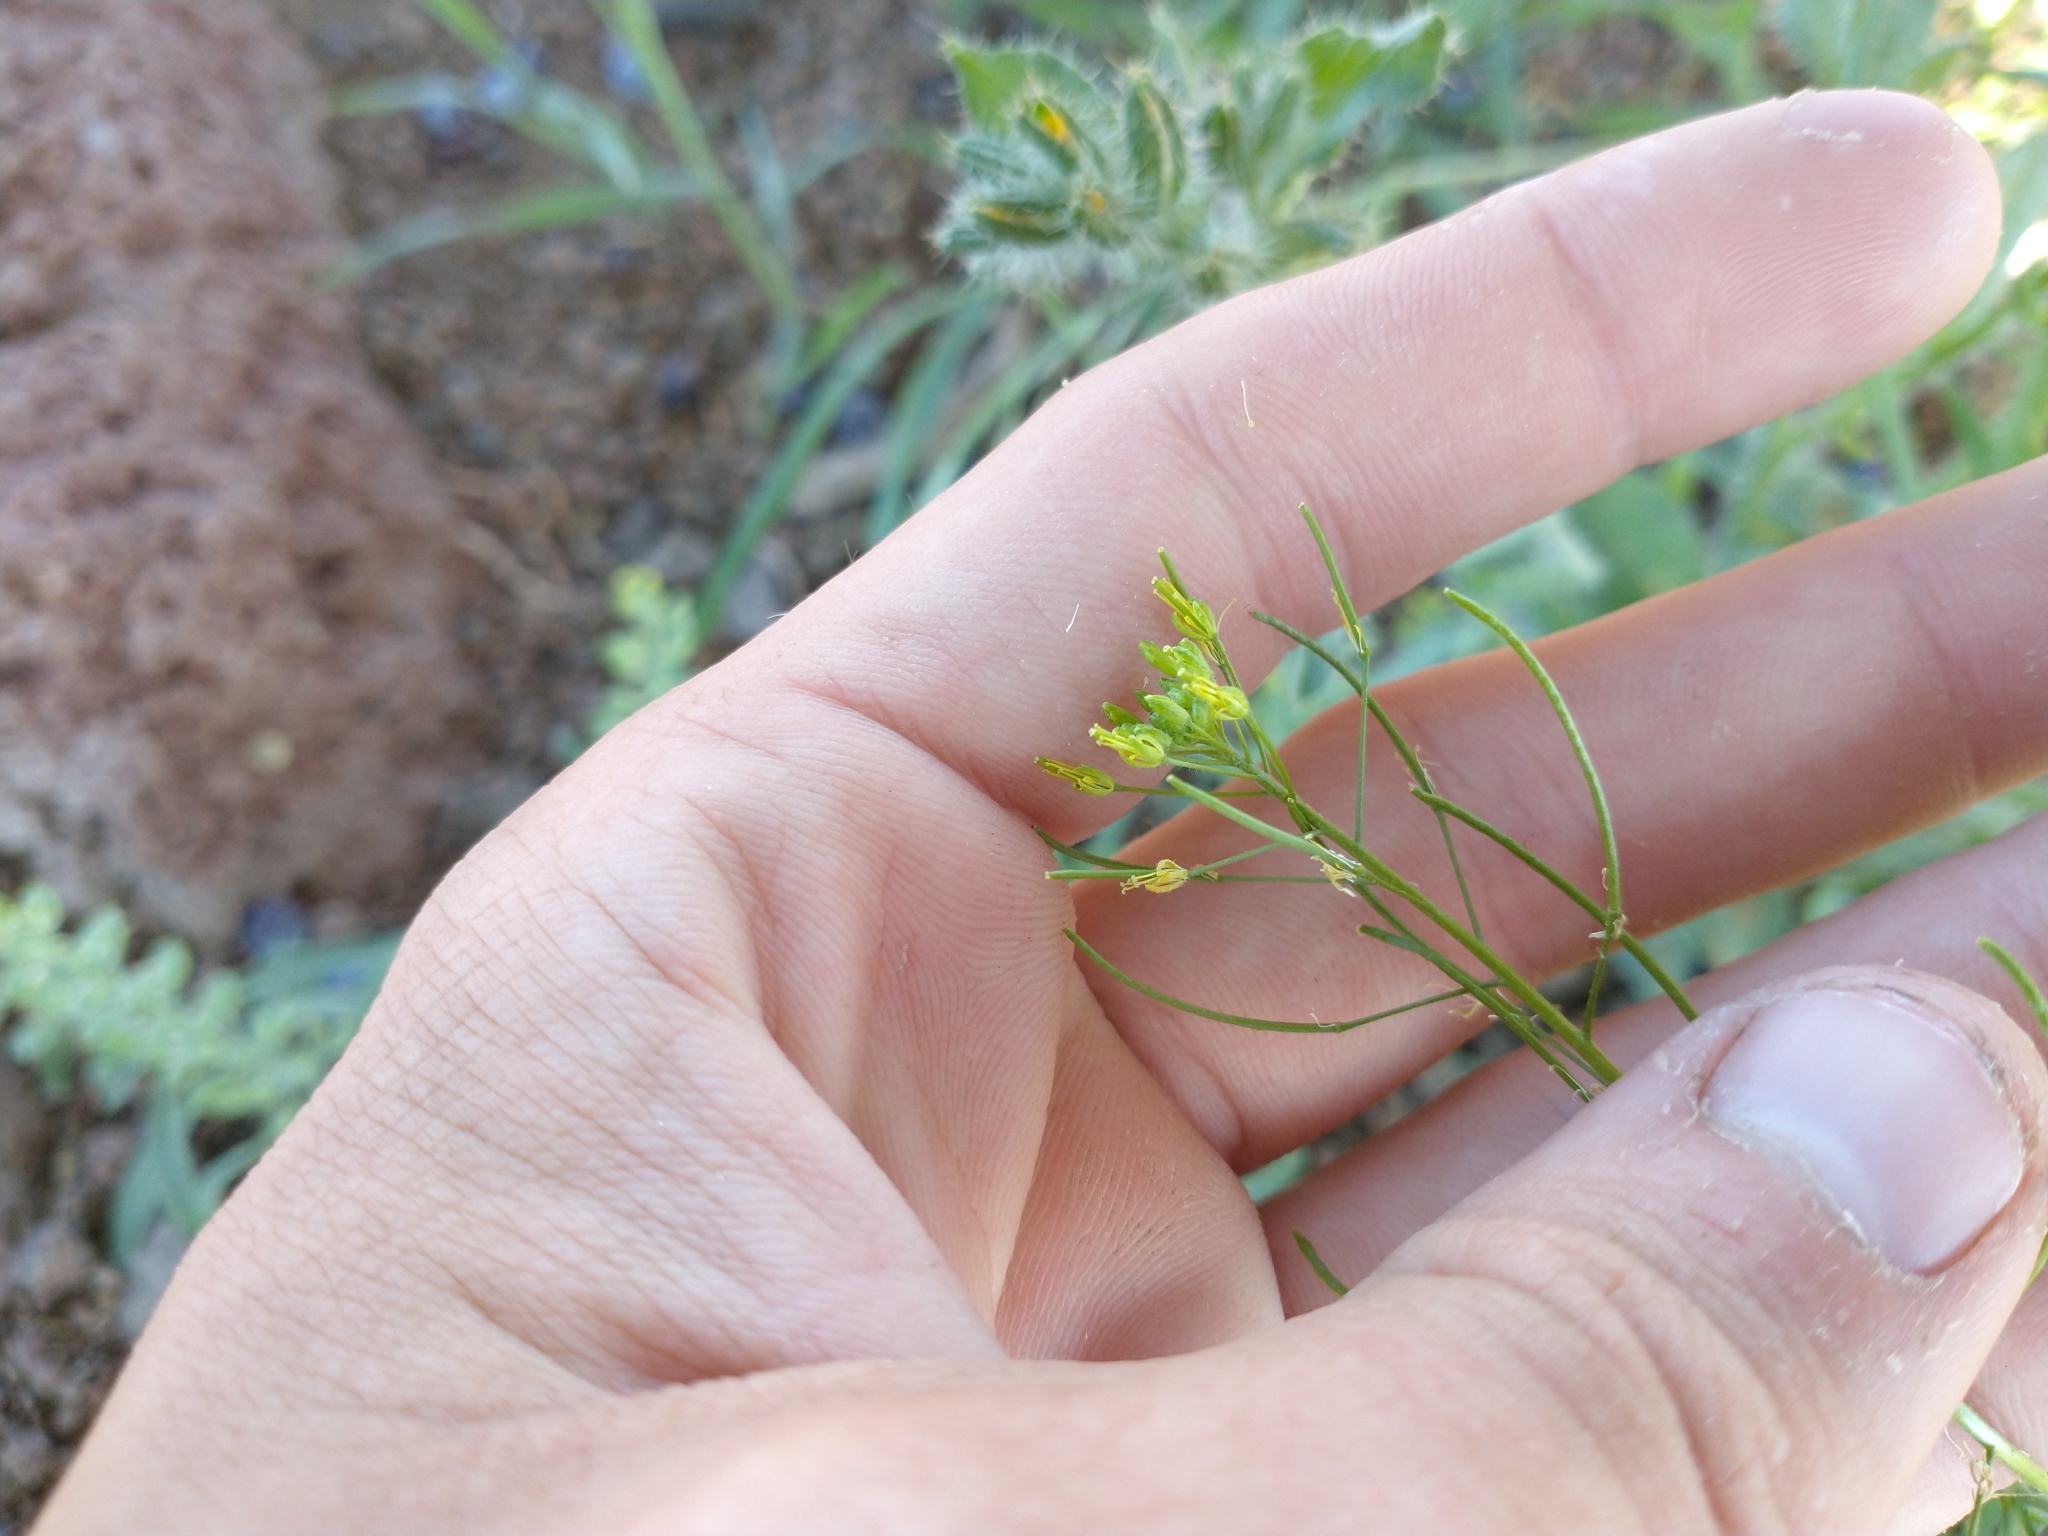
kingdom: Plantae
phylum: Tracheophyta
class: Magnoliopsida
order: Brassicales
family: Brassicaceae
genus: Descurainia
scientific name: Descurainia sophia
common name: Flixweed
